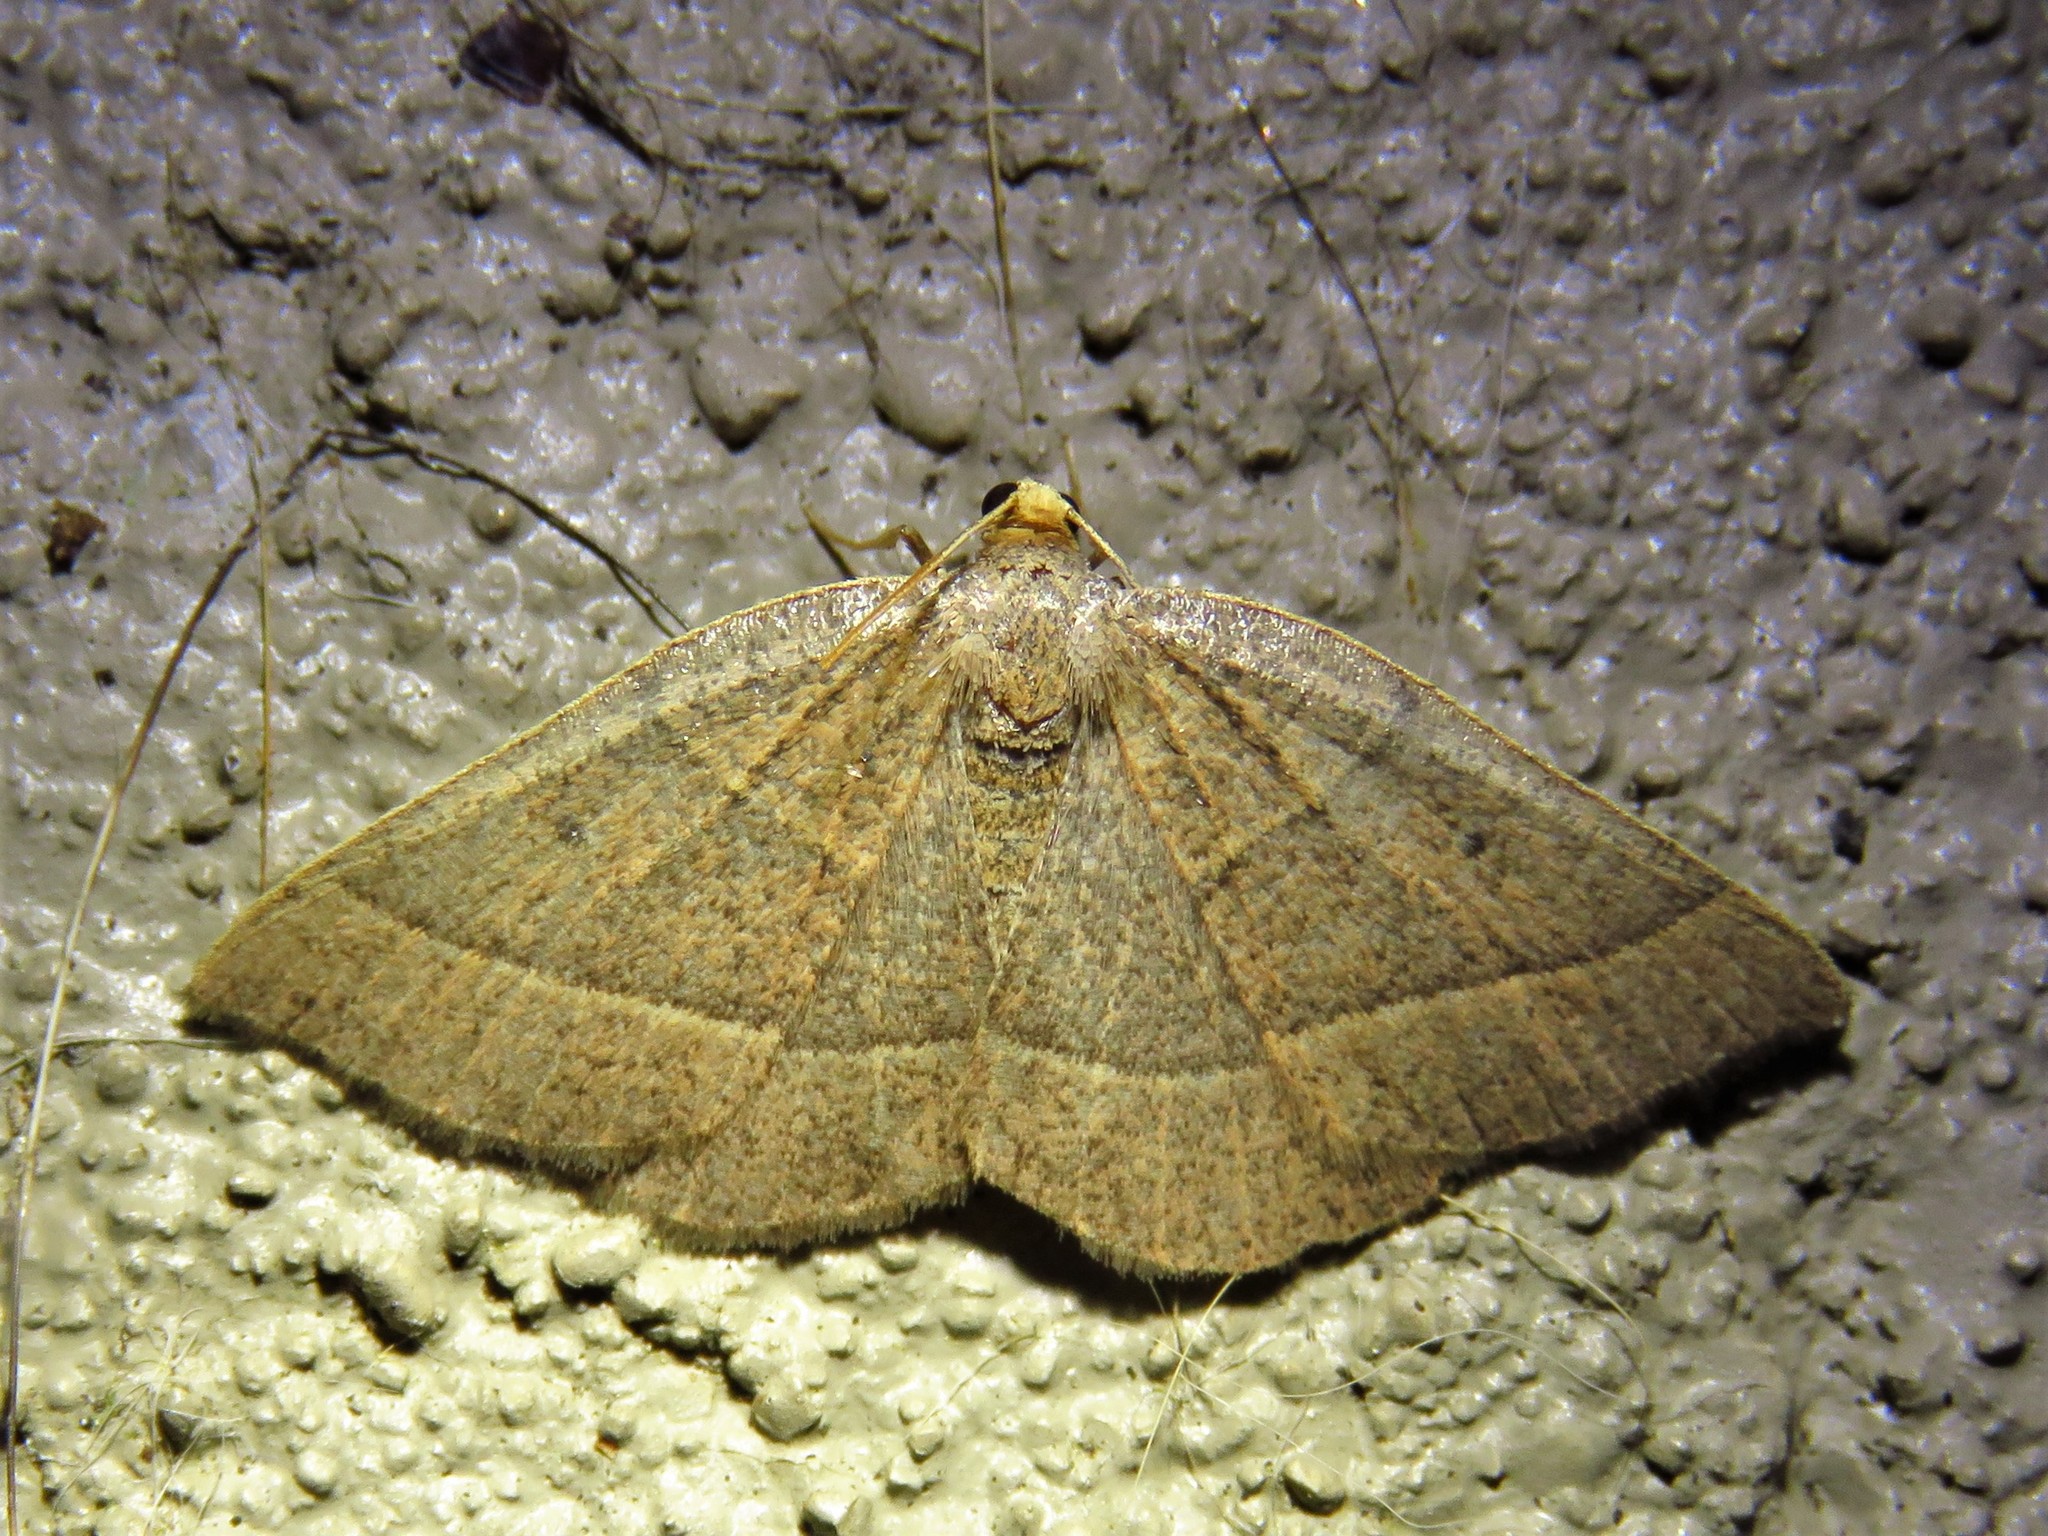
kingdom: Animalia
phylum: Arthropoda
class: Insecta
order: Lepidoptera
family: Geometridae
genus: Episemasia
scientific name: Episemasia cervinaria
